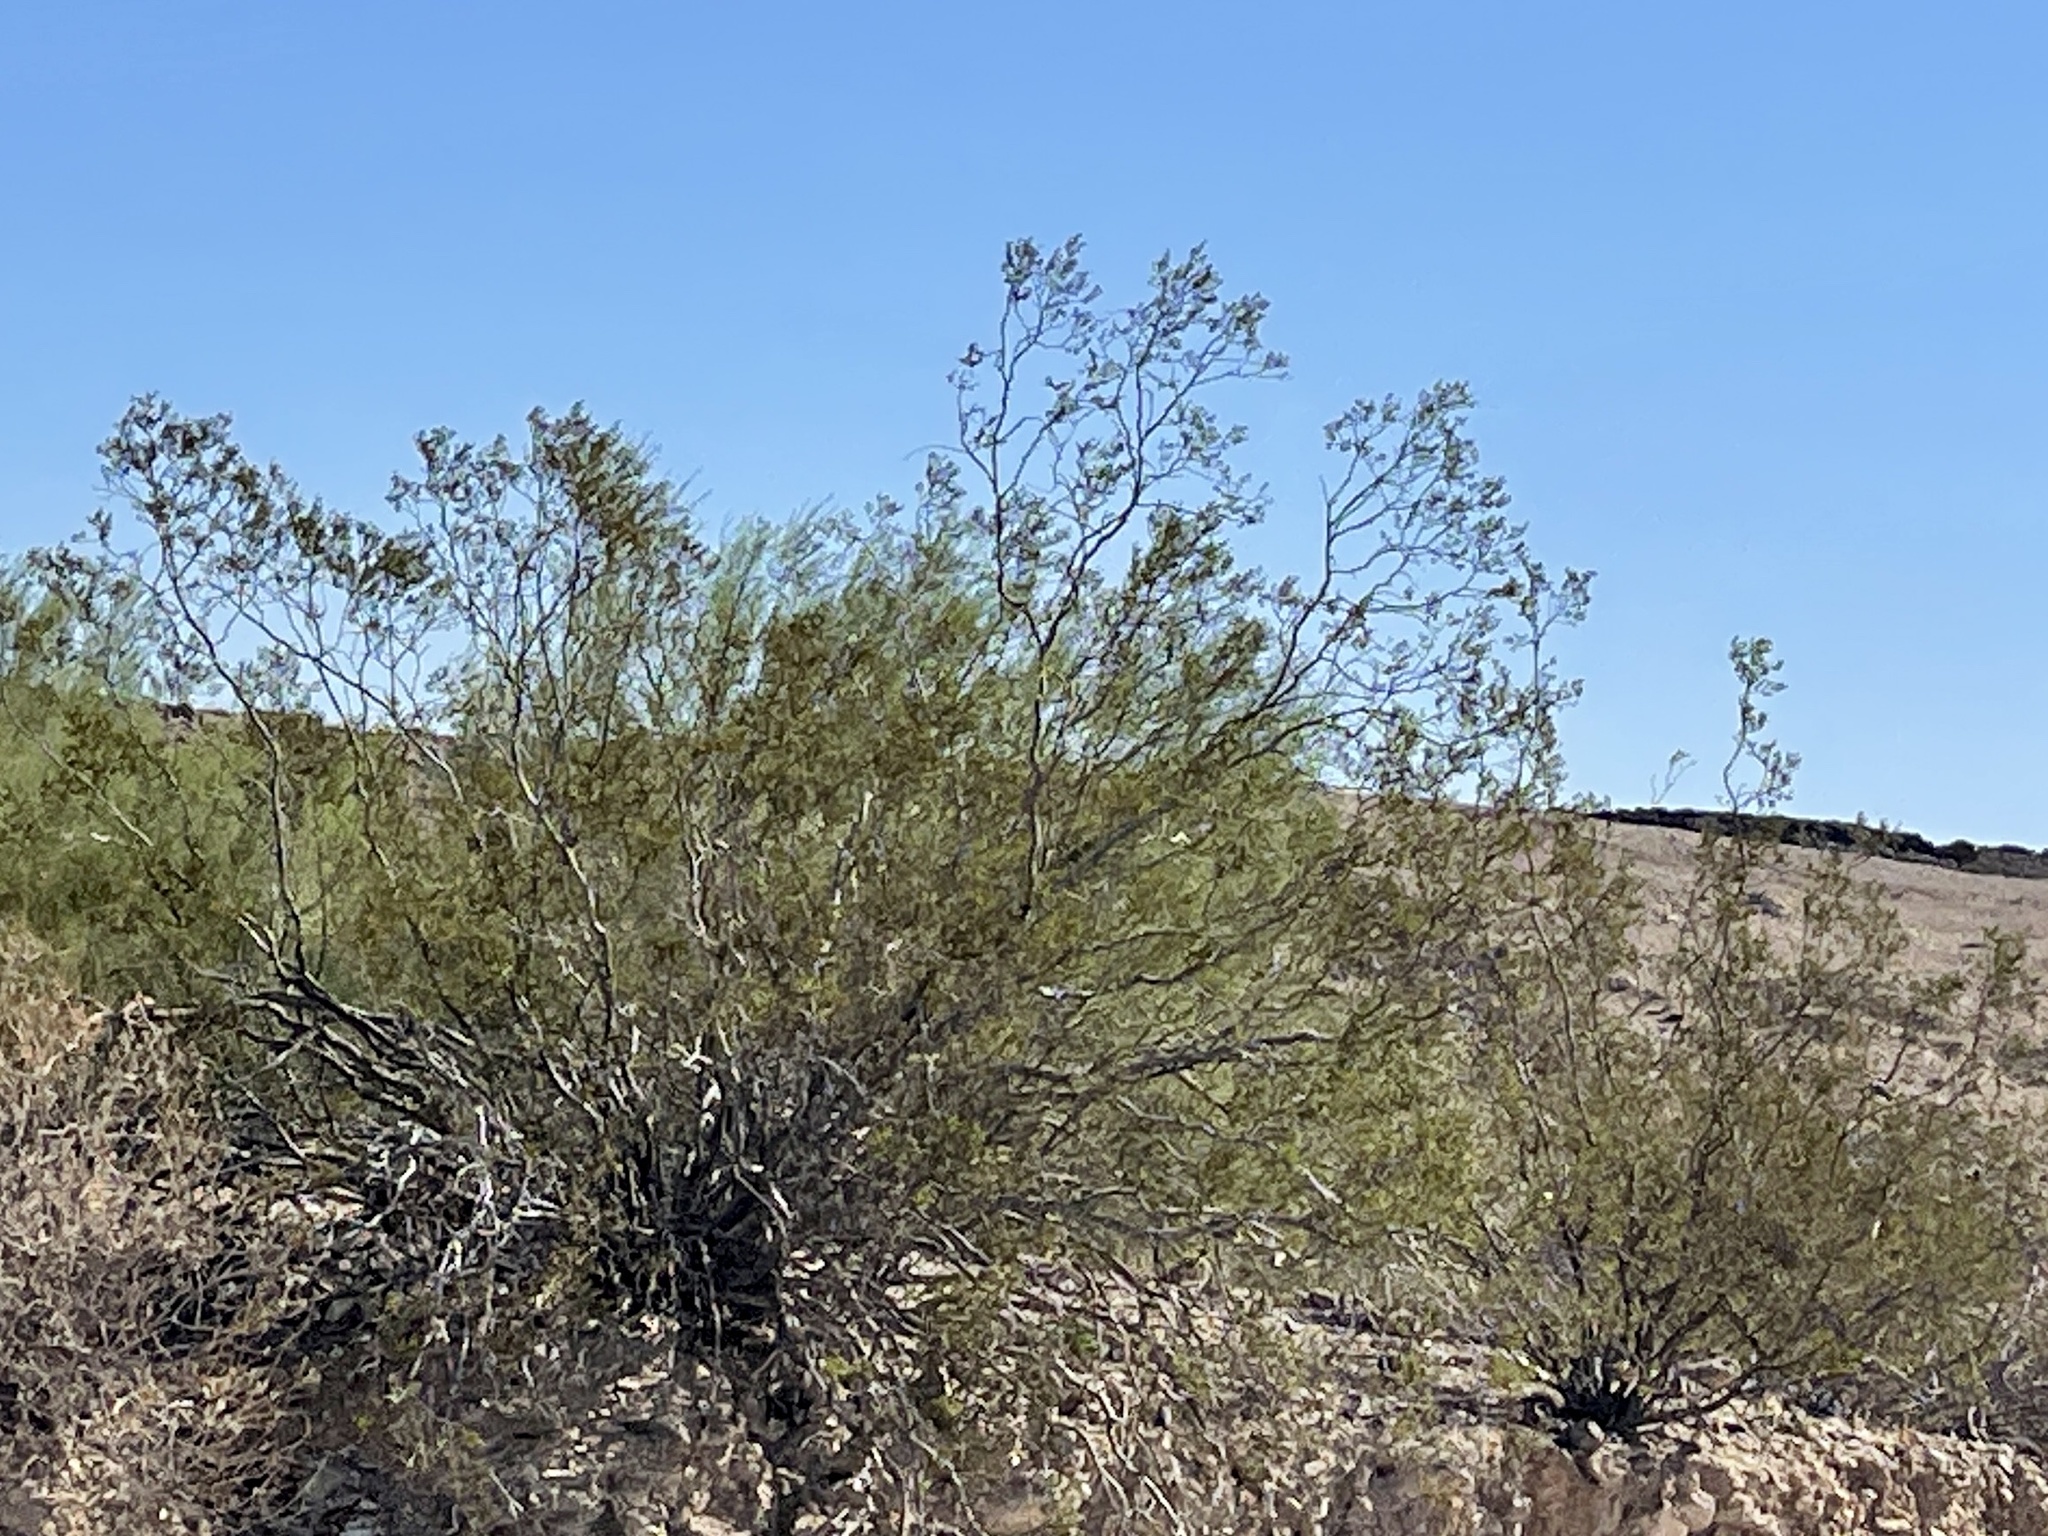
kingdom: Plantae
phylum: Tracheophyta
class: Magnoliopsida
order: Zygophyllales
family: Zygophyllaceae
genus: Larrea
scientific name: Larrea tridentata
